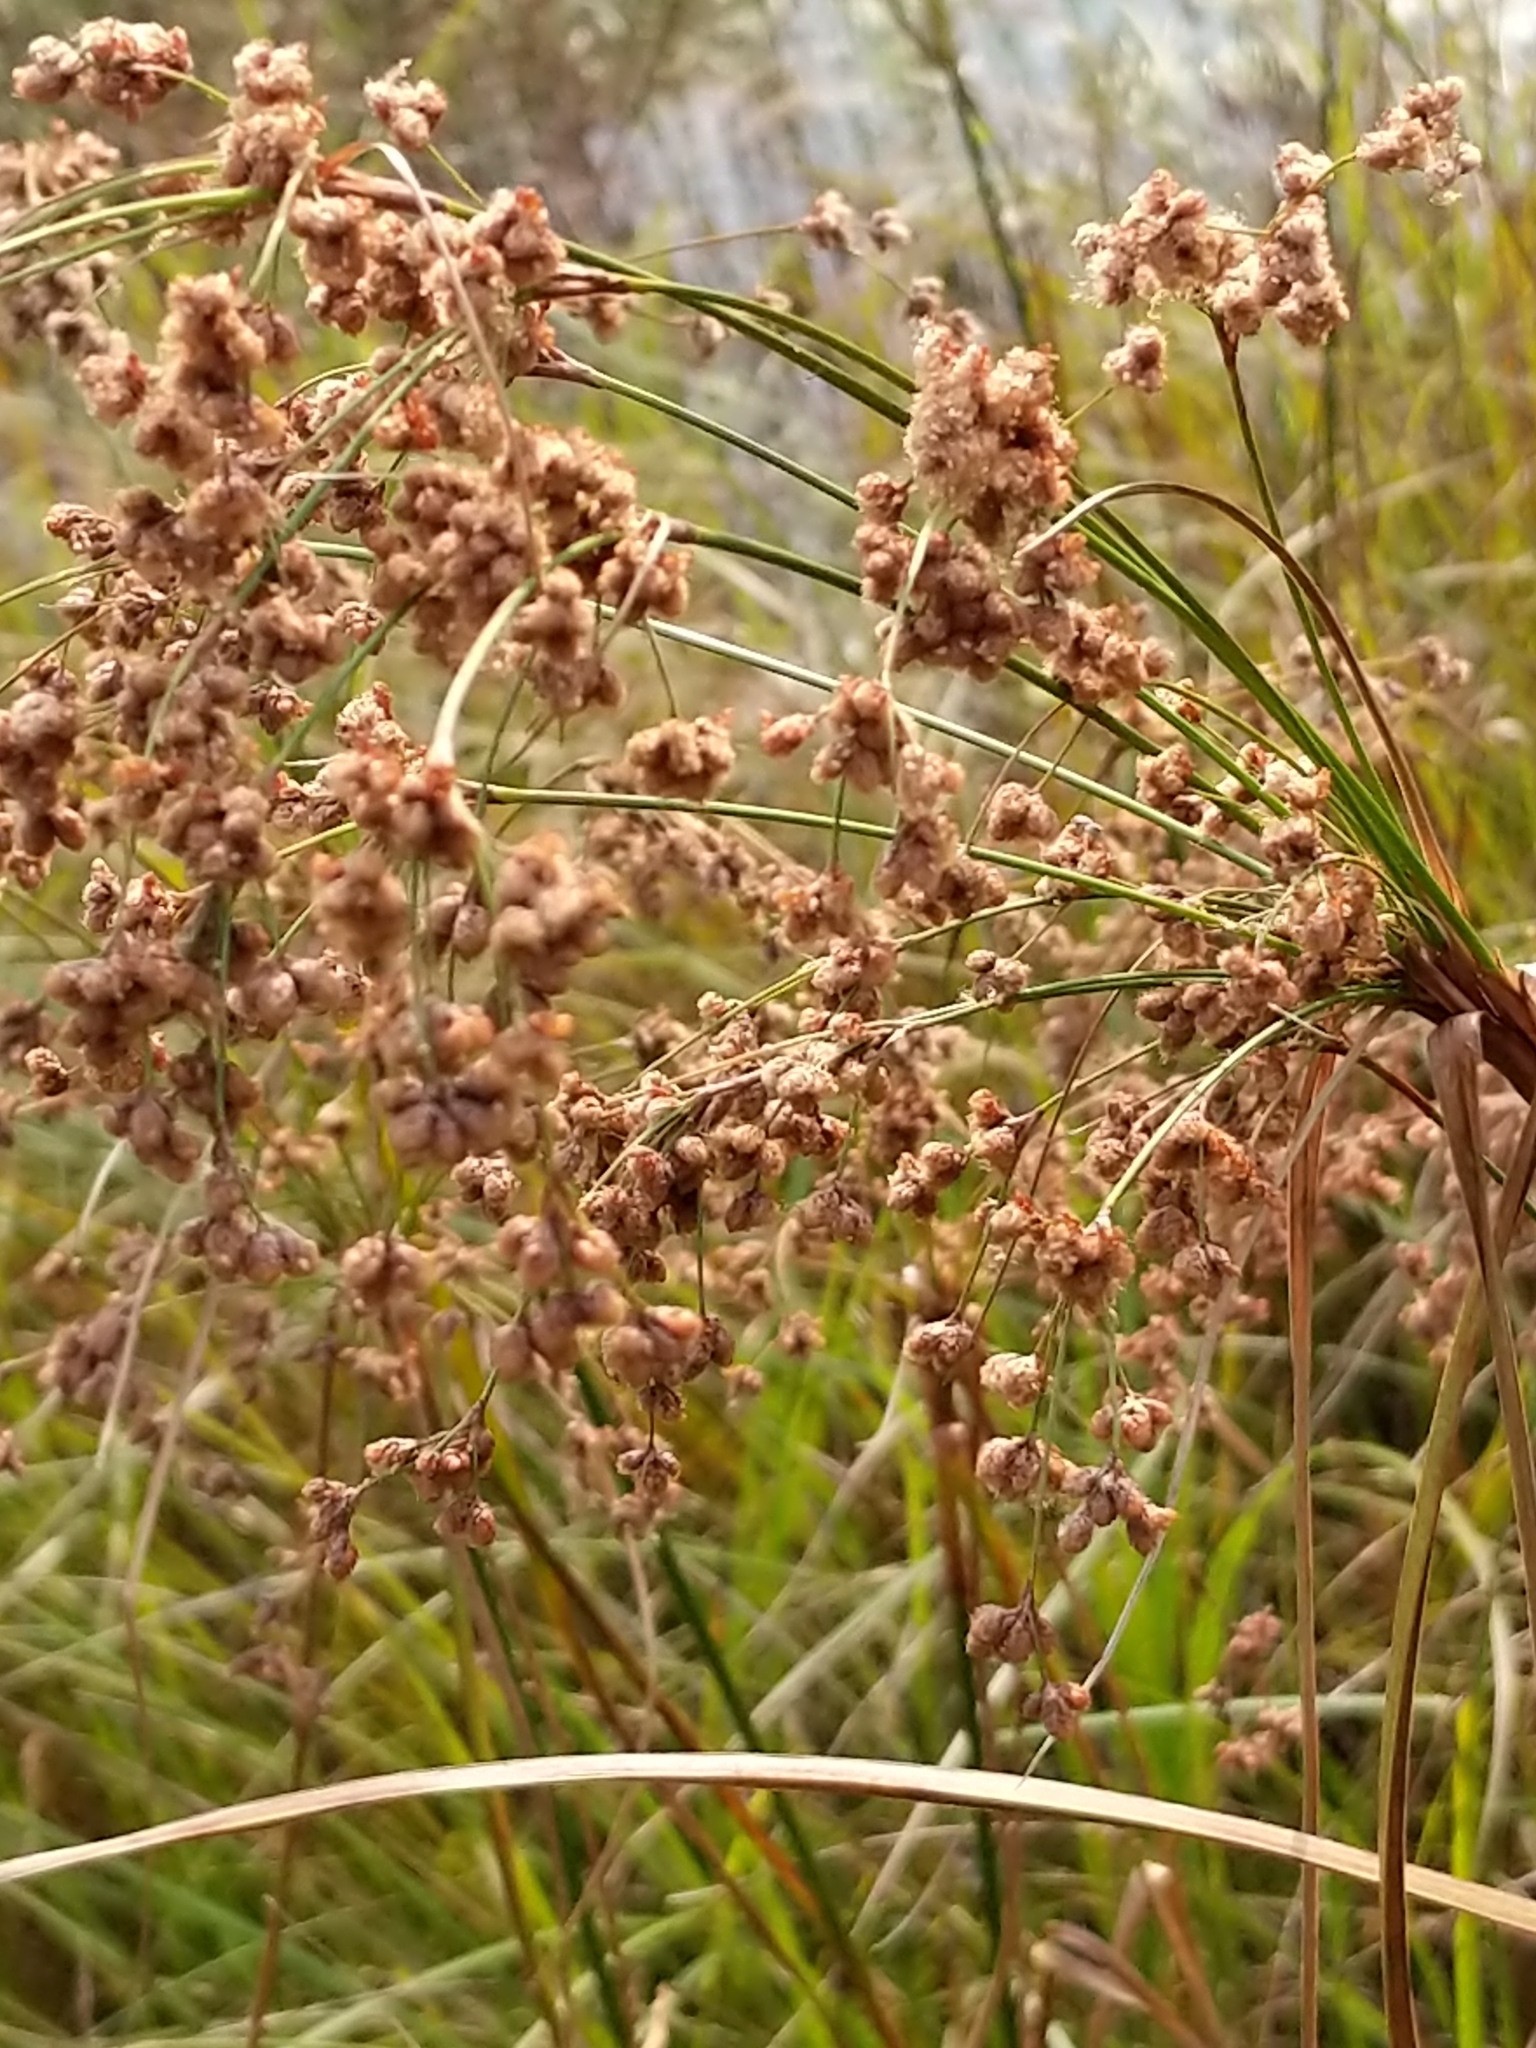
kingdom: Plantae
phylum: Tracheophyta
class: Liliopsida
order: Poales
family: Cyperaceae
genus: Scirpus
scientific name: Scirpus cyperinus
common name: Black-sheathed bulrush
